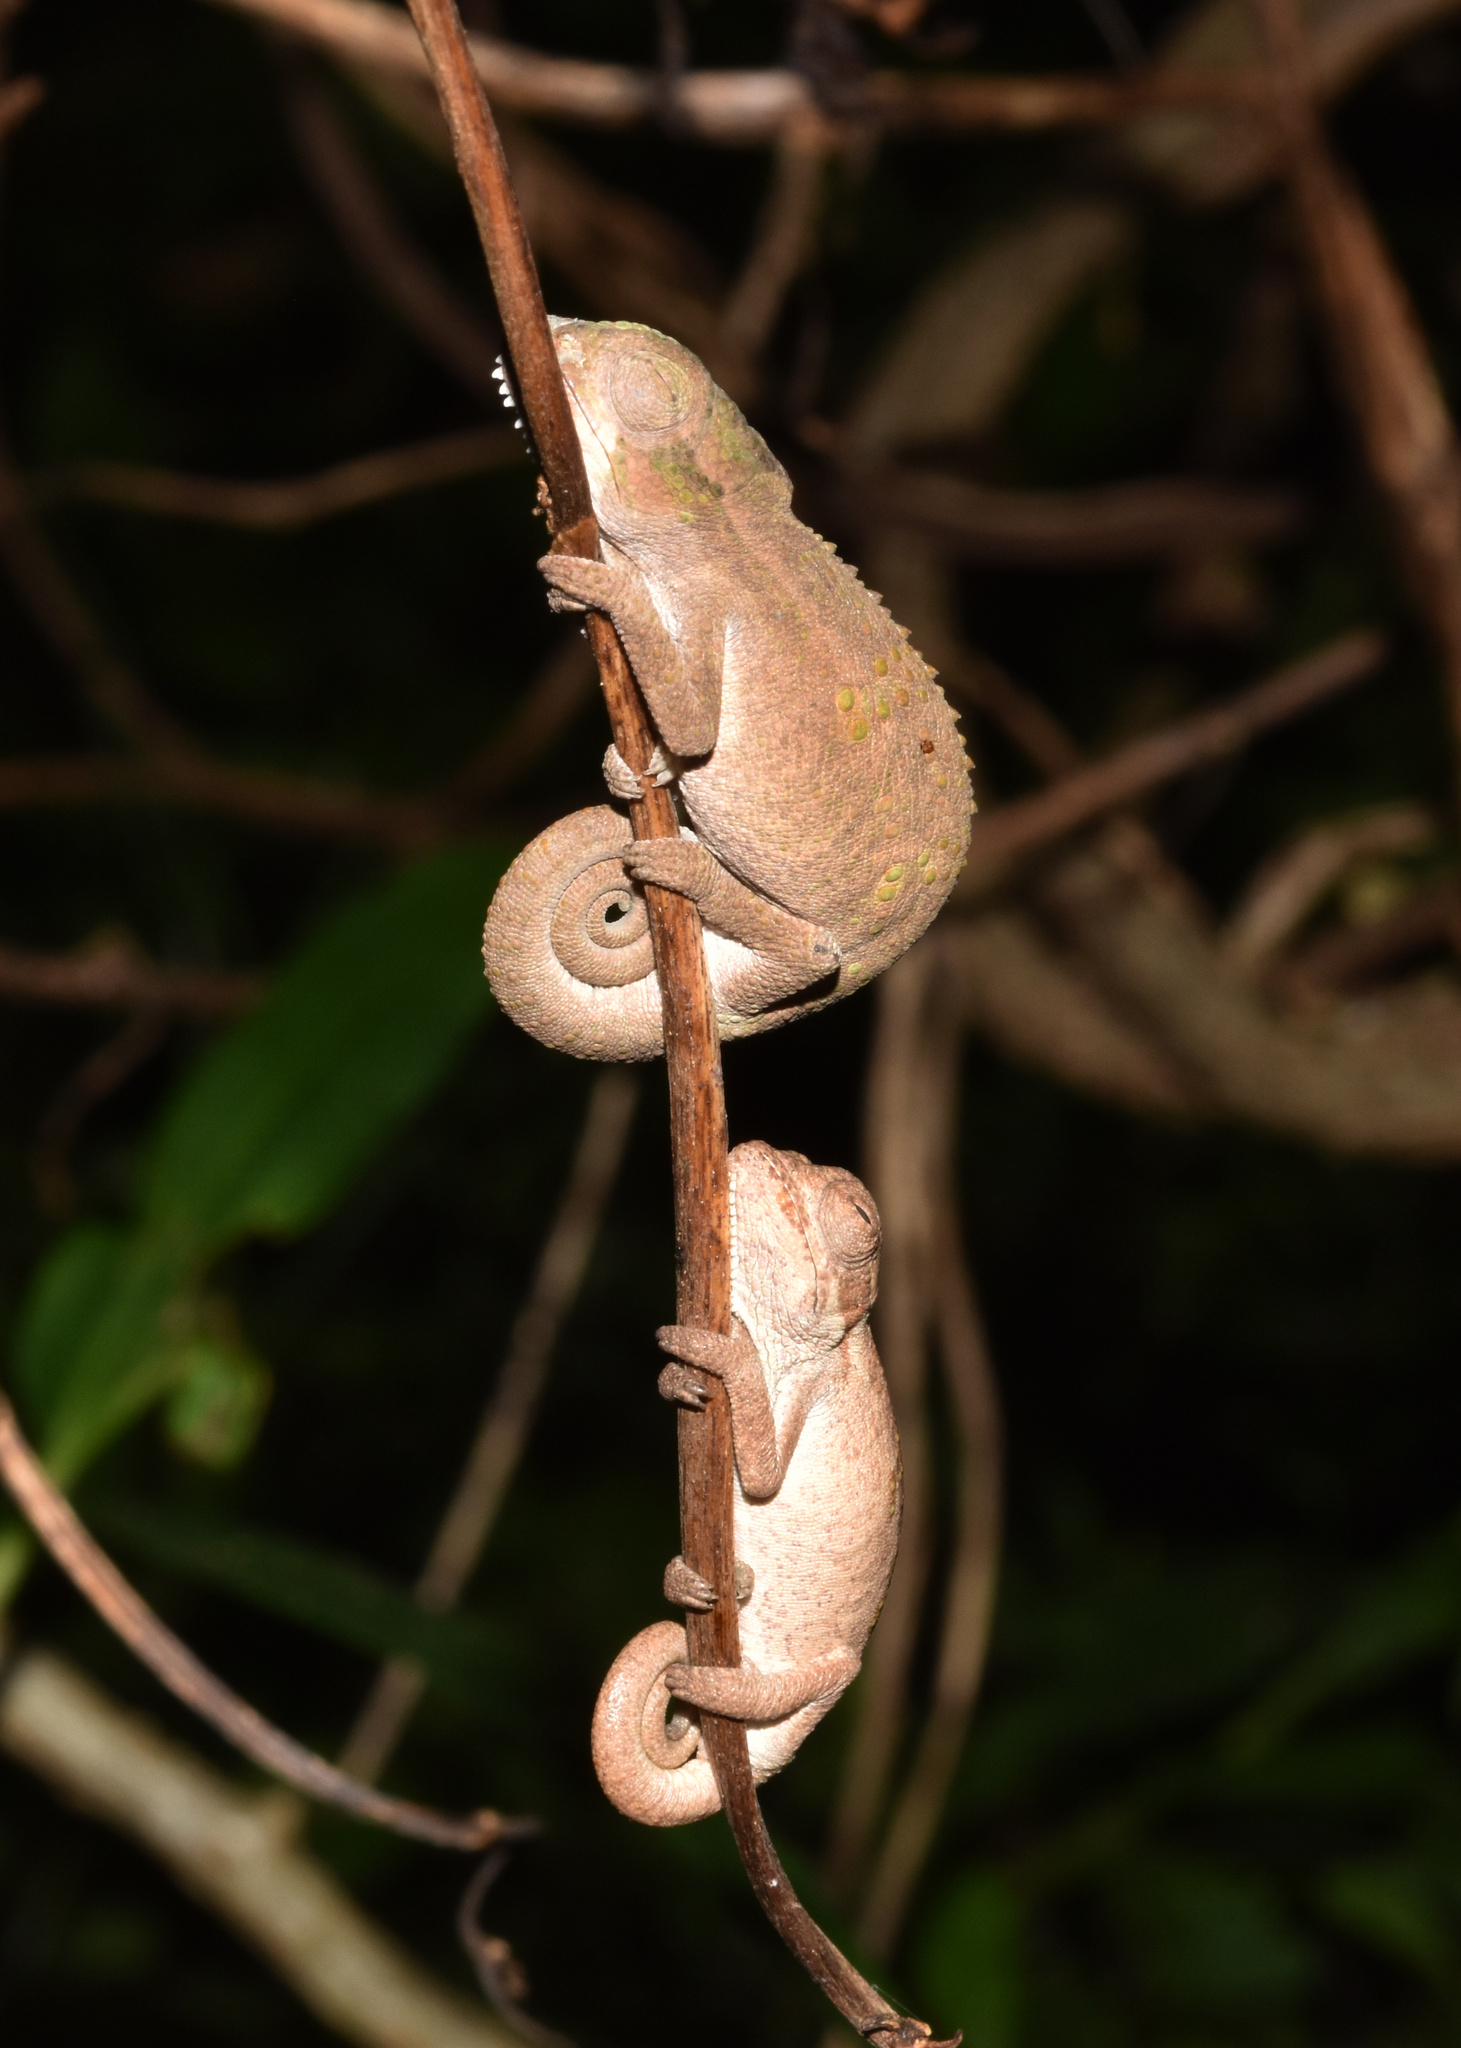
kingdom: Animalia
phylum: Chordata
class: Squamata
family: Chamaeleonidae
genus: Bradypodion
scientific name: Bradypodion melanocephalum
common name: Black-headed dwarf chameleon
